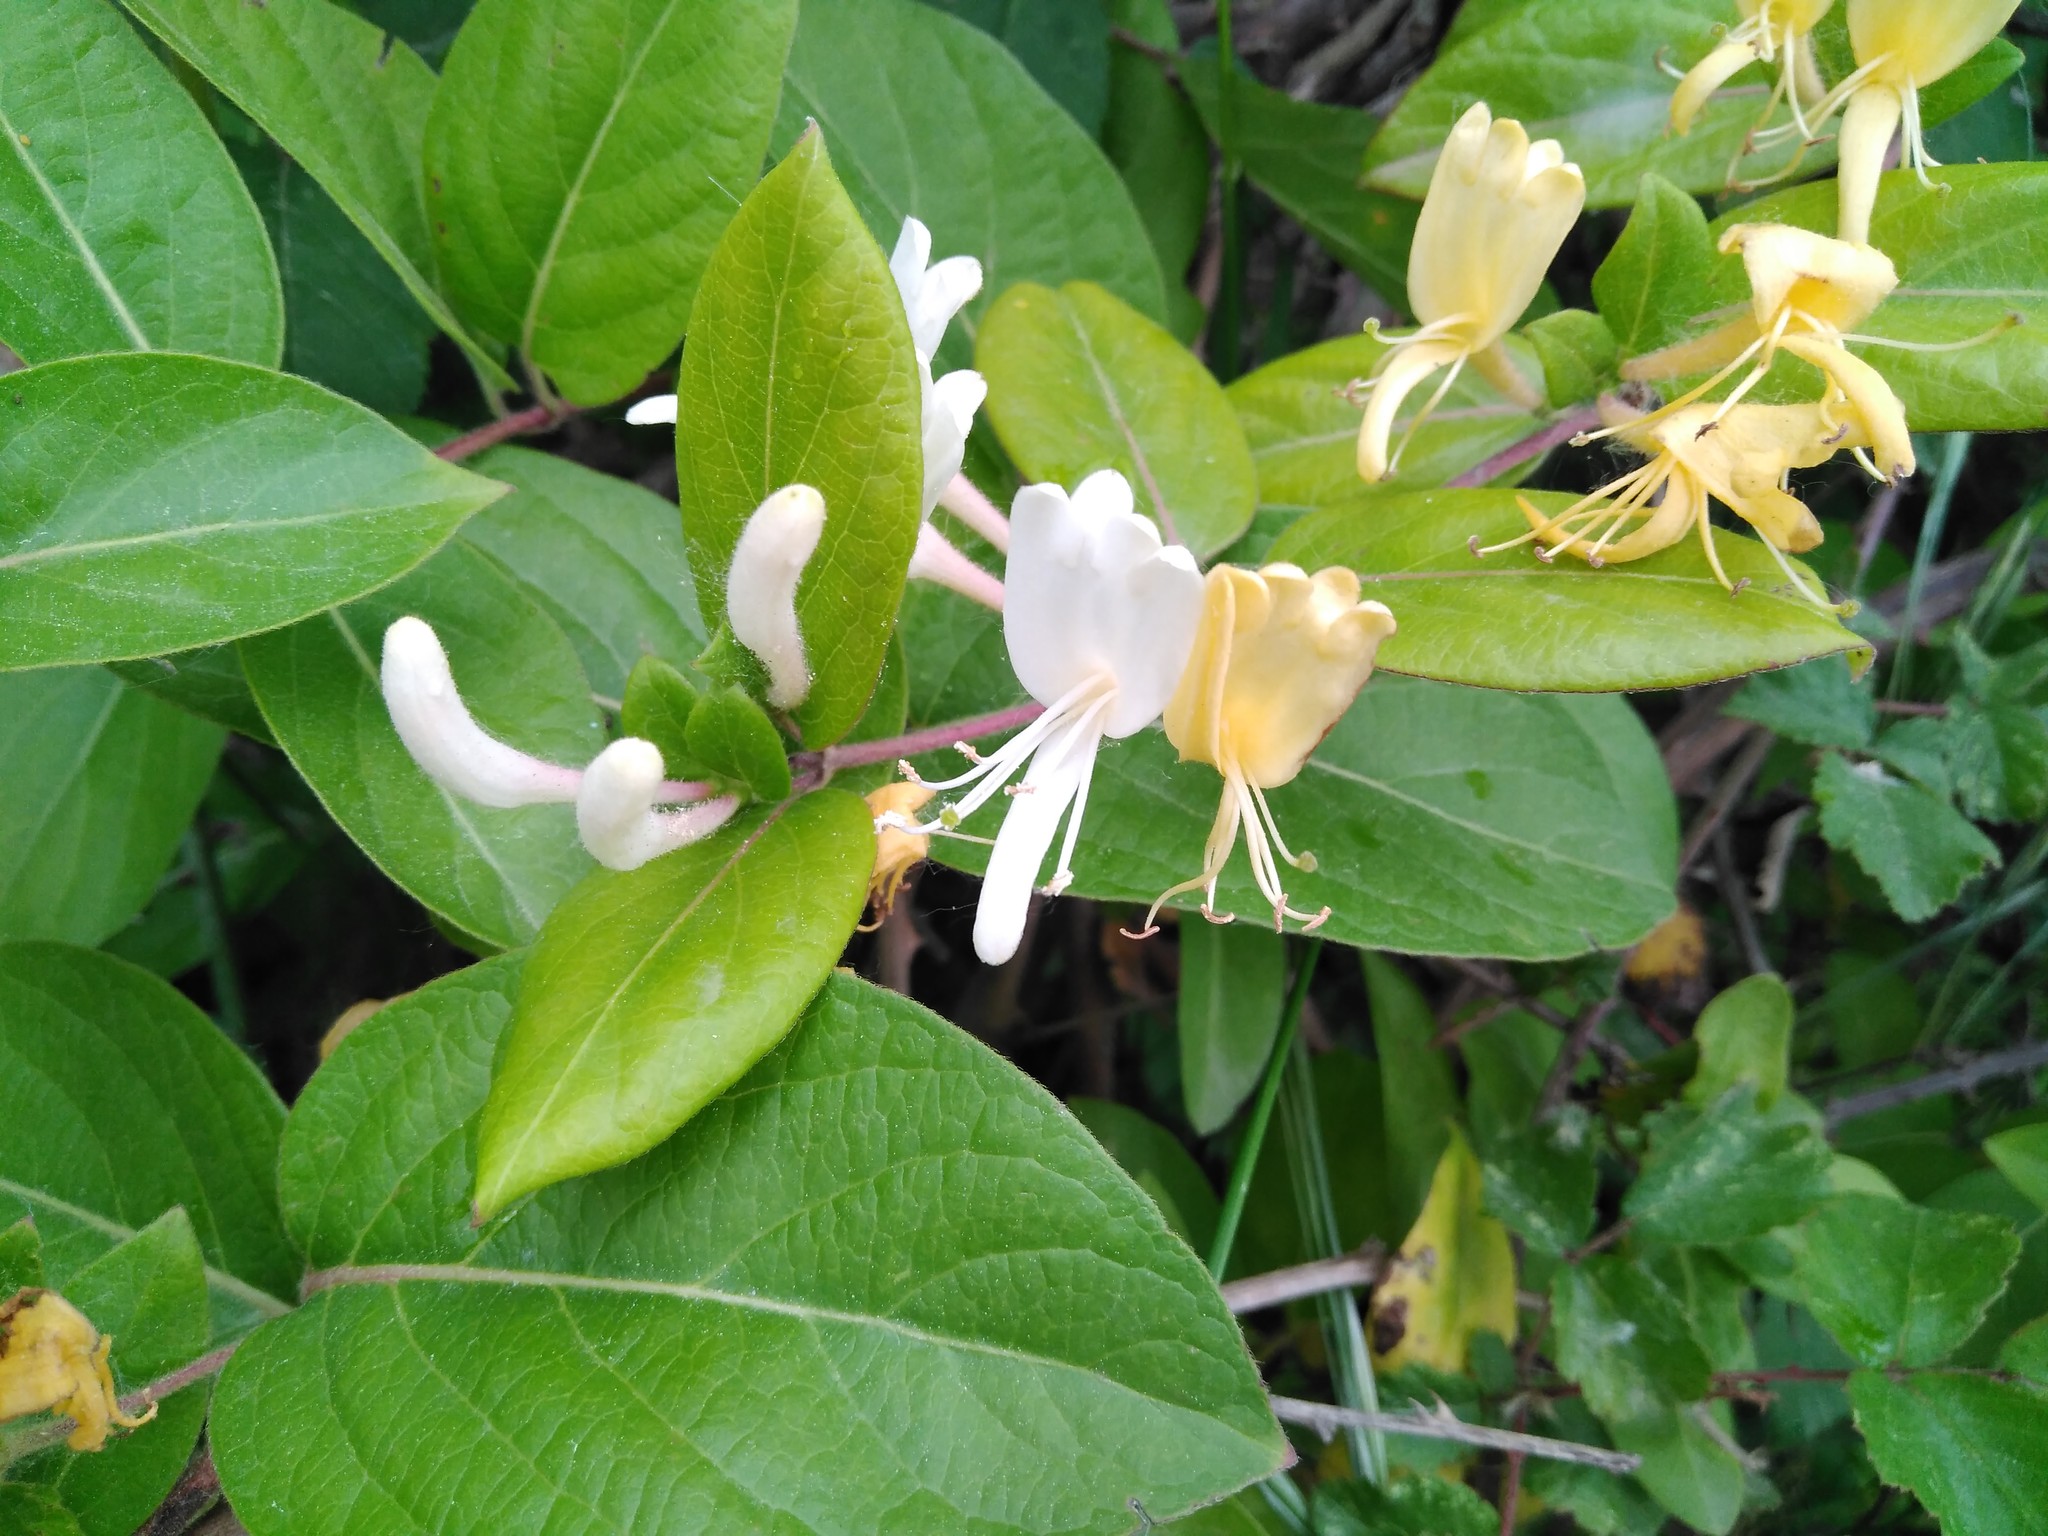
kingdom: Plantae
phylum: Tracheophyta
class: Magnoliopsida
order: Dipsacales
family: Caprifoliaceae
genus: Lonicera
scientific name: Lonicera japonica
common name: Japanese honeysuckle
